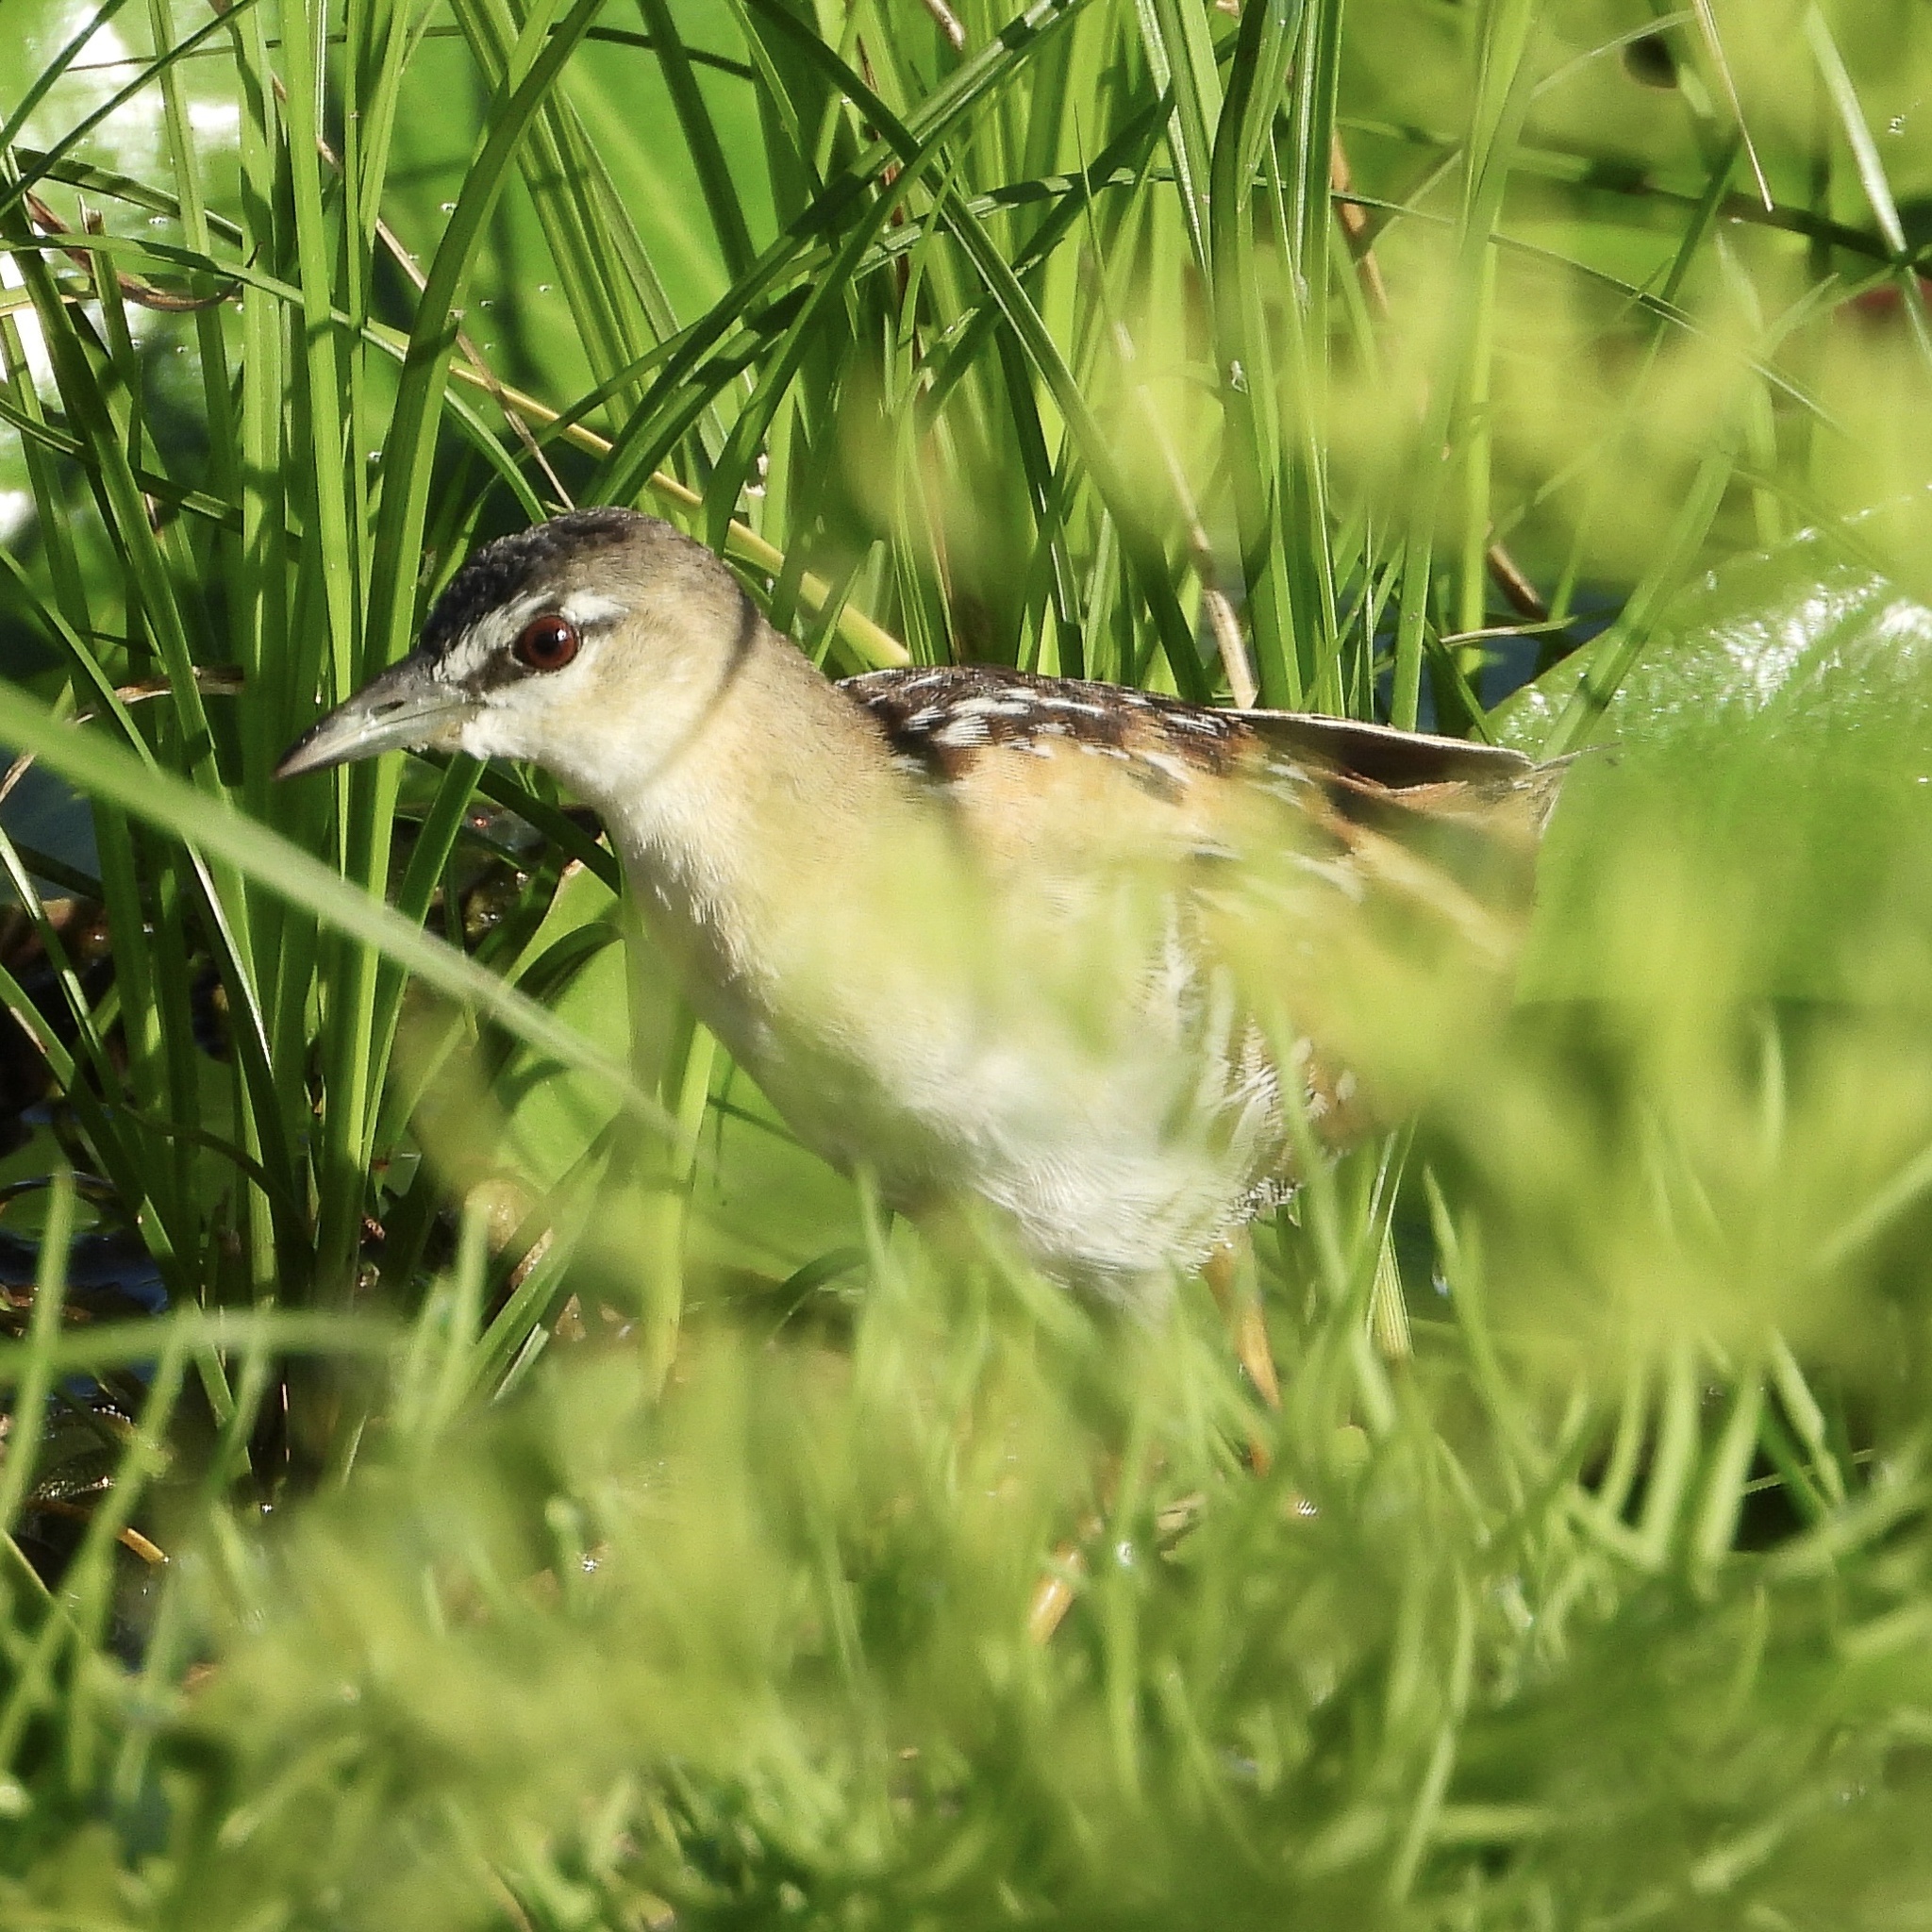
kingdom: Animalia
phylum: Chordata
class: Aves
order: Gruiformes
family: Rallidae
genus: Porzana
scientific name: Porzana flaviventer
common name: Yellow-breasted crake
